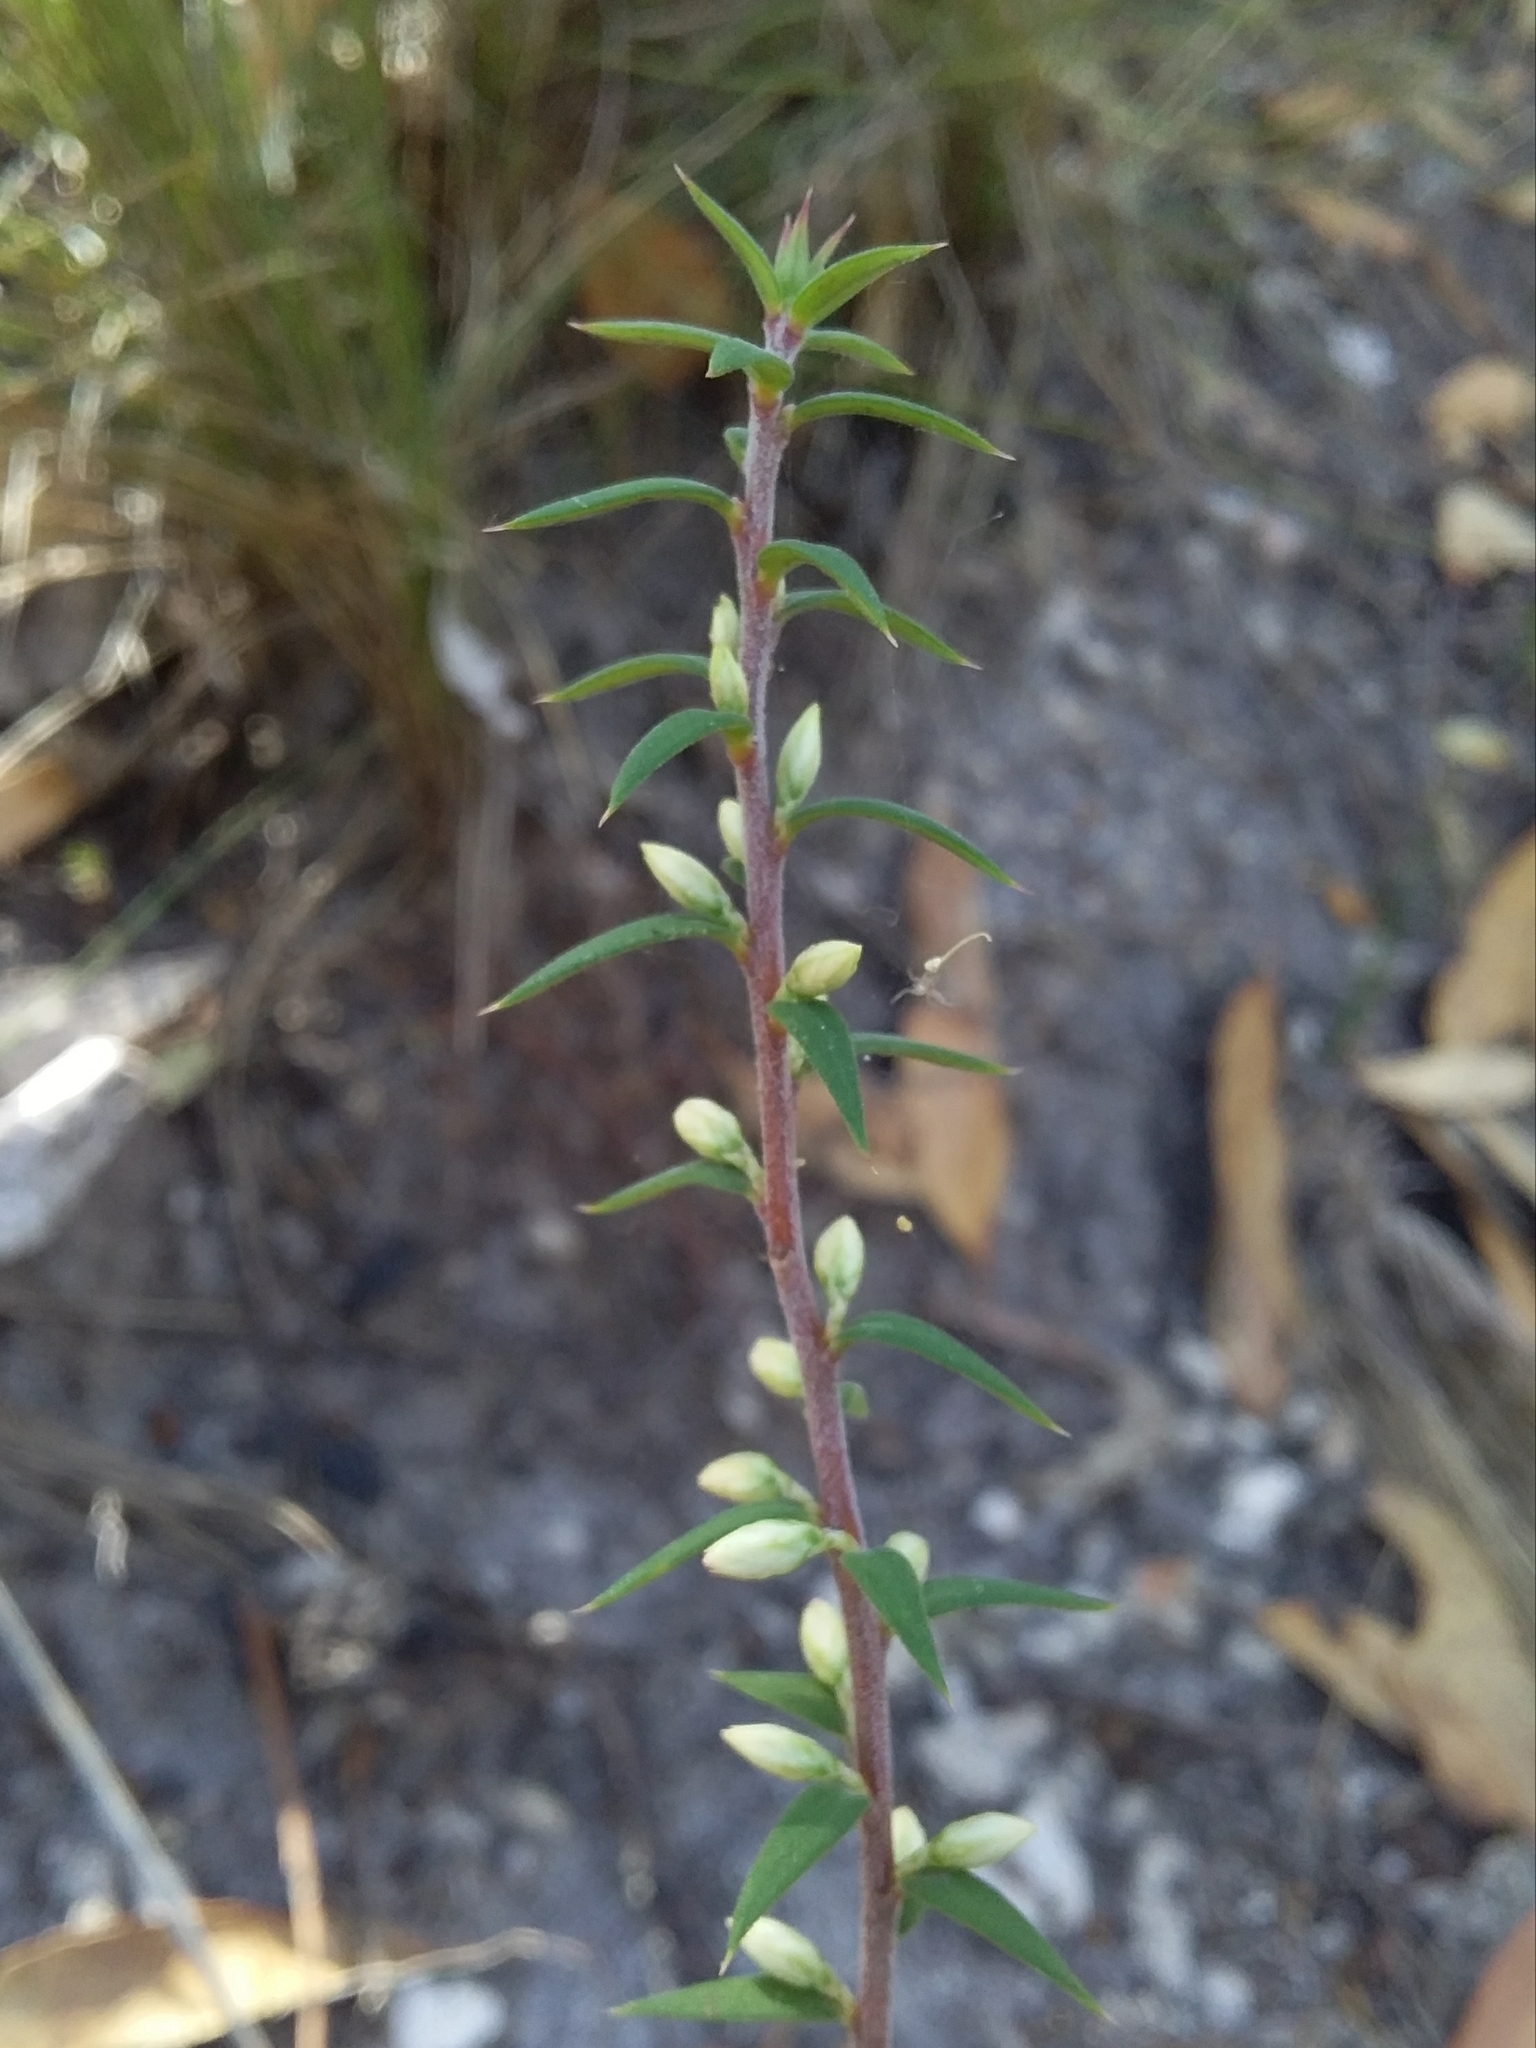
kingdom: Plantae
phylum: Tracheophyta
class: Magnoliopsida
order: Ericales
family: Ericaceae
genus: Epacris
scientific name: Epacris impressa
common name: Common-heath
